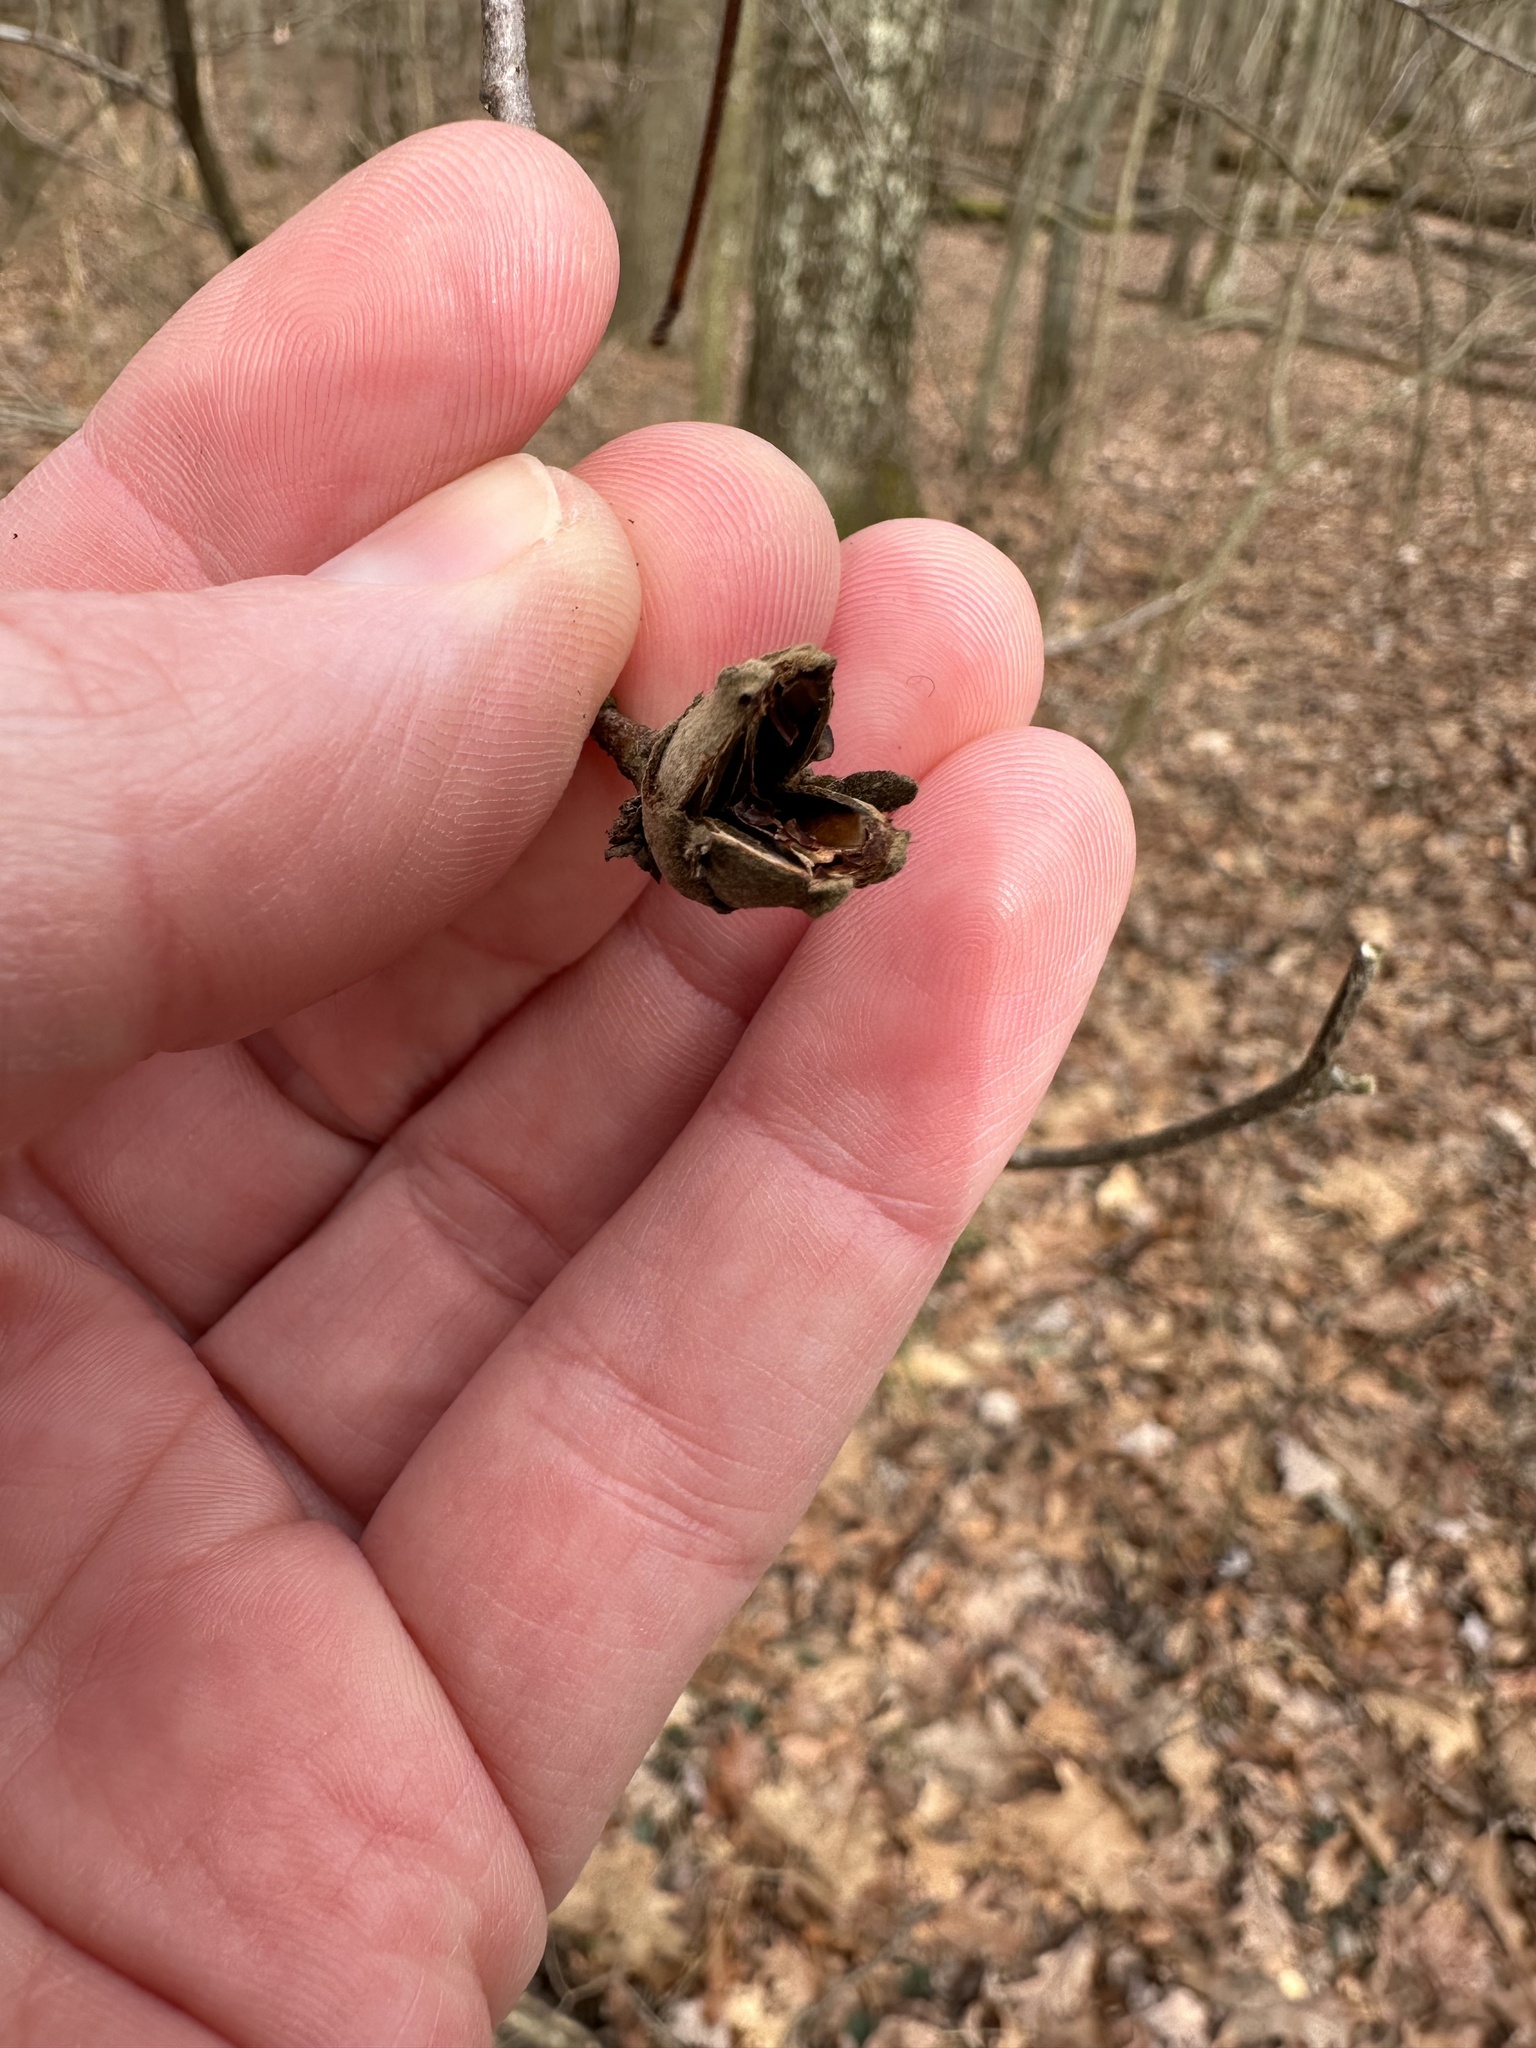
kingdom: Plantae
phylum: Tracheophyta
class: Magnoliopsida
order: Saxifragales
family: Hamamelidaceae
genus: Hamamelis
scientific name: Hamamelis virginiana
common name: Witch-hazel
